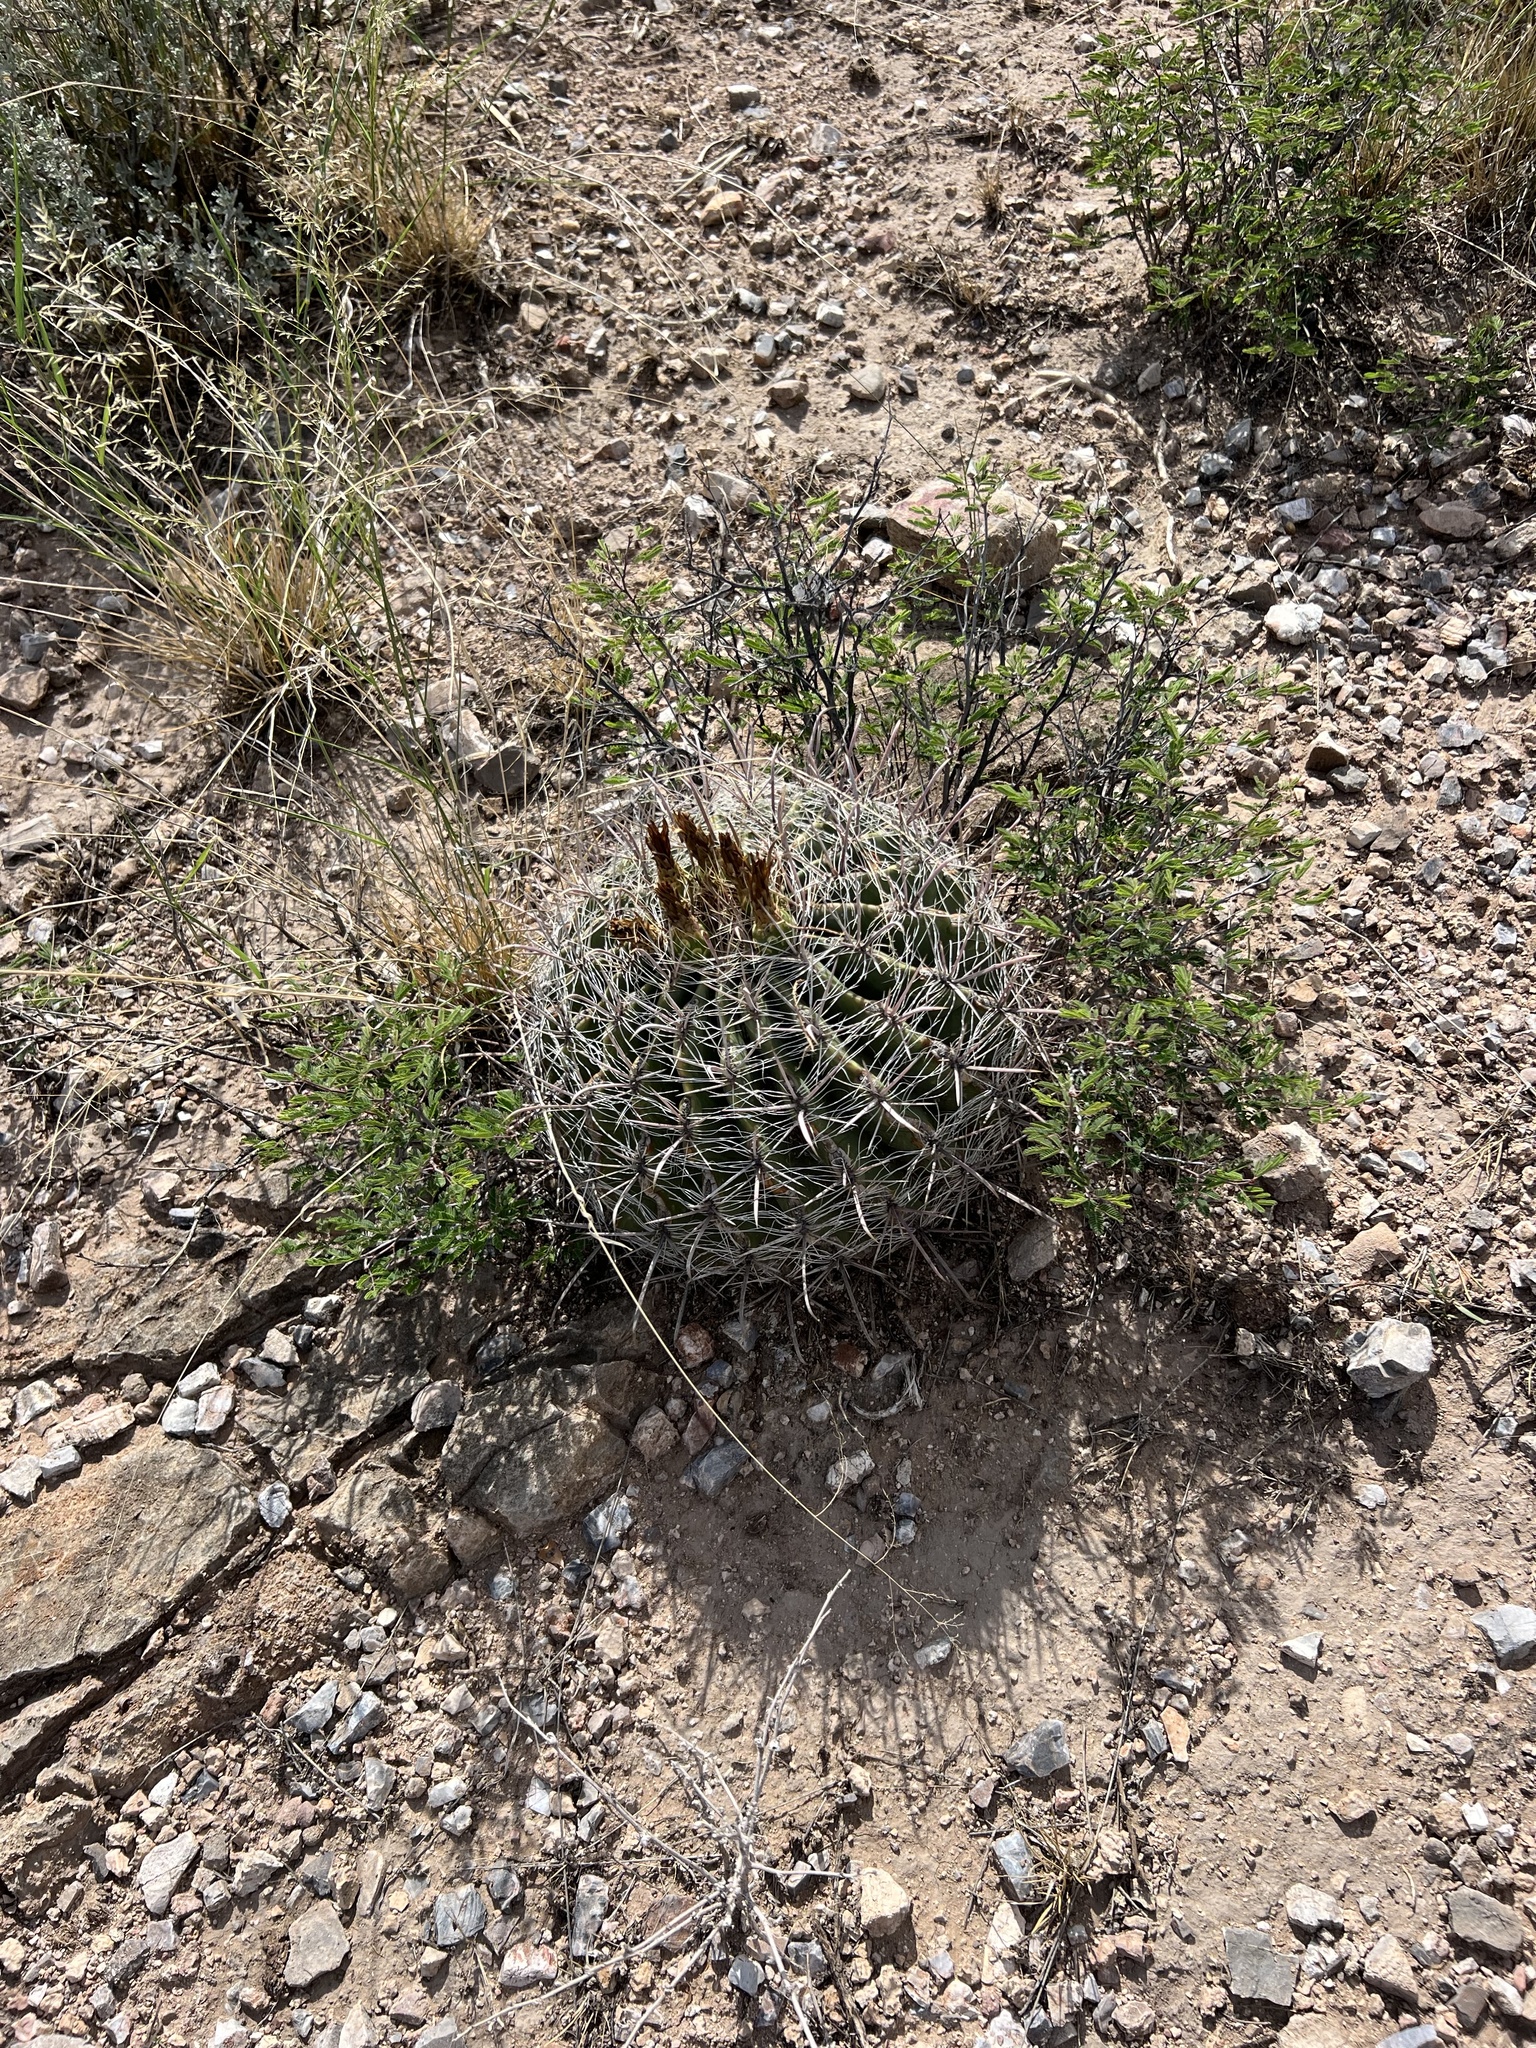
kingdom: Plantae
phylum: Tracheophyta
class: Magnoliopsida
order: Caryophyllales
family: Cactaceae
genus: Ferocactus
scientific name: Ferocactus wislizeni
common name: Candy barrel cactus
